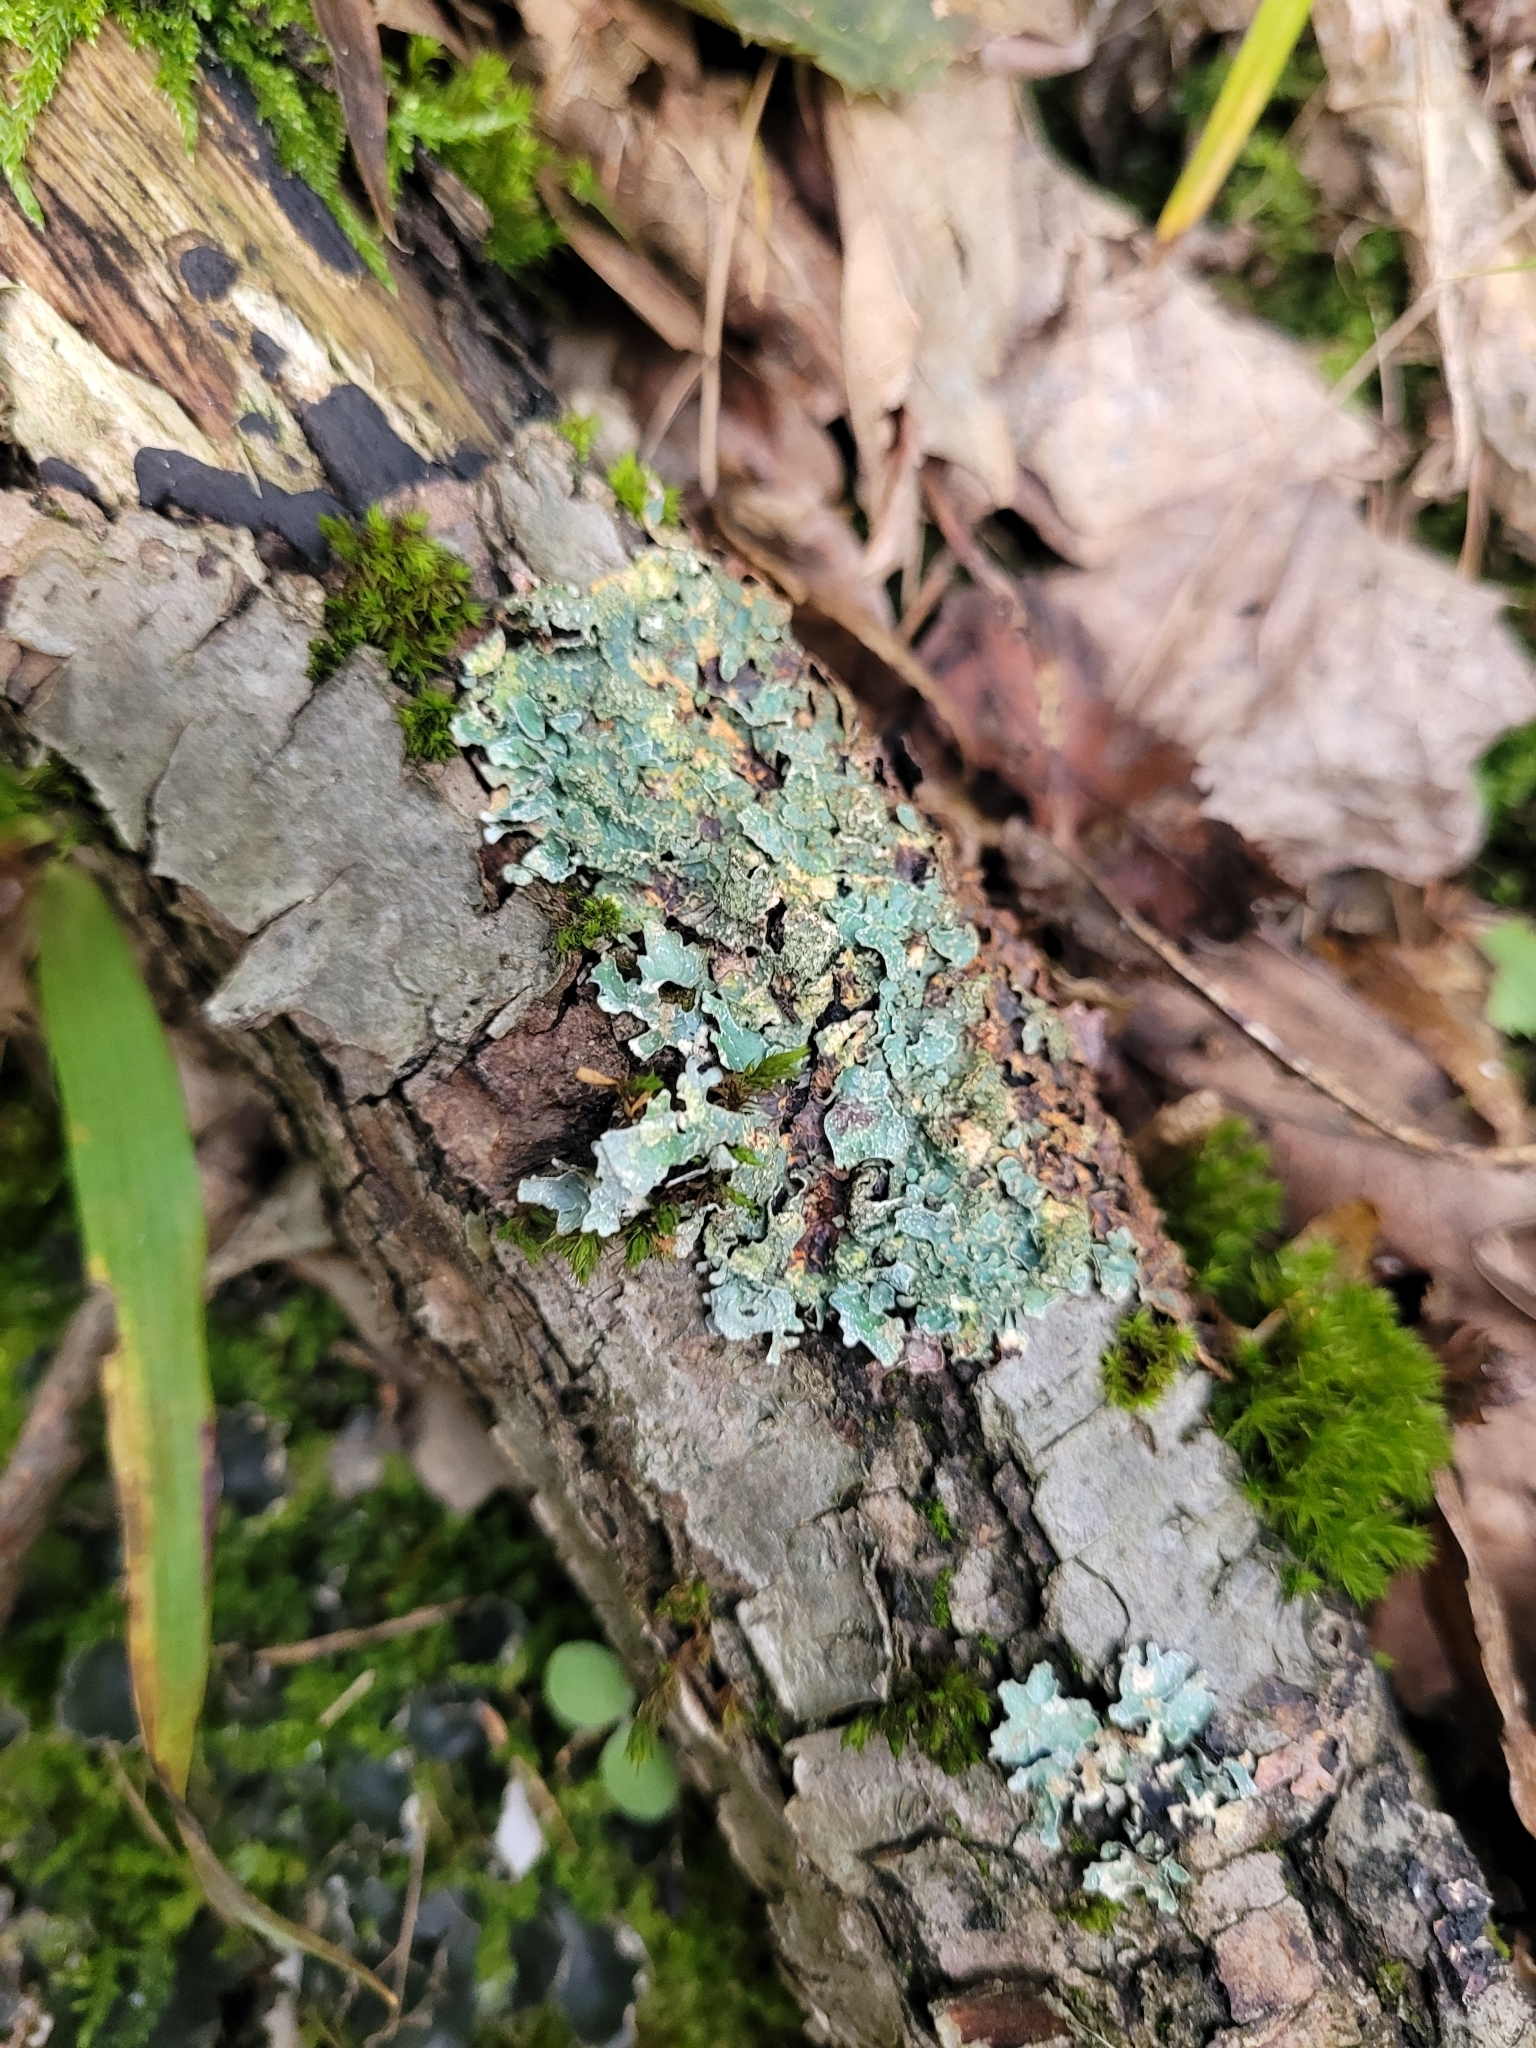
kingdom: Fungi
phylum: Ascomycota
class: Lecanoromycetes
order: Lecanorales
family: Parmeliaceae
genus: Parmelia
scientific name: Parmelia sulcata
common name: Netted shield lichen
